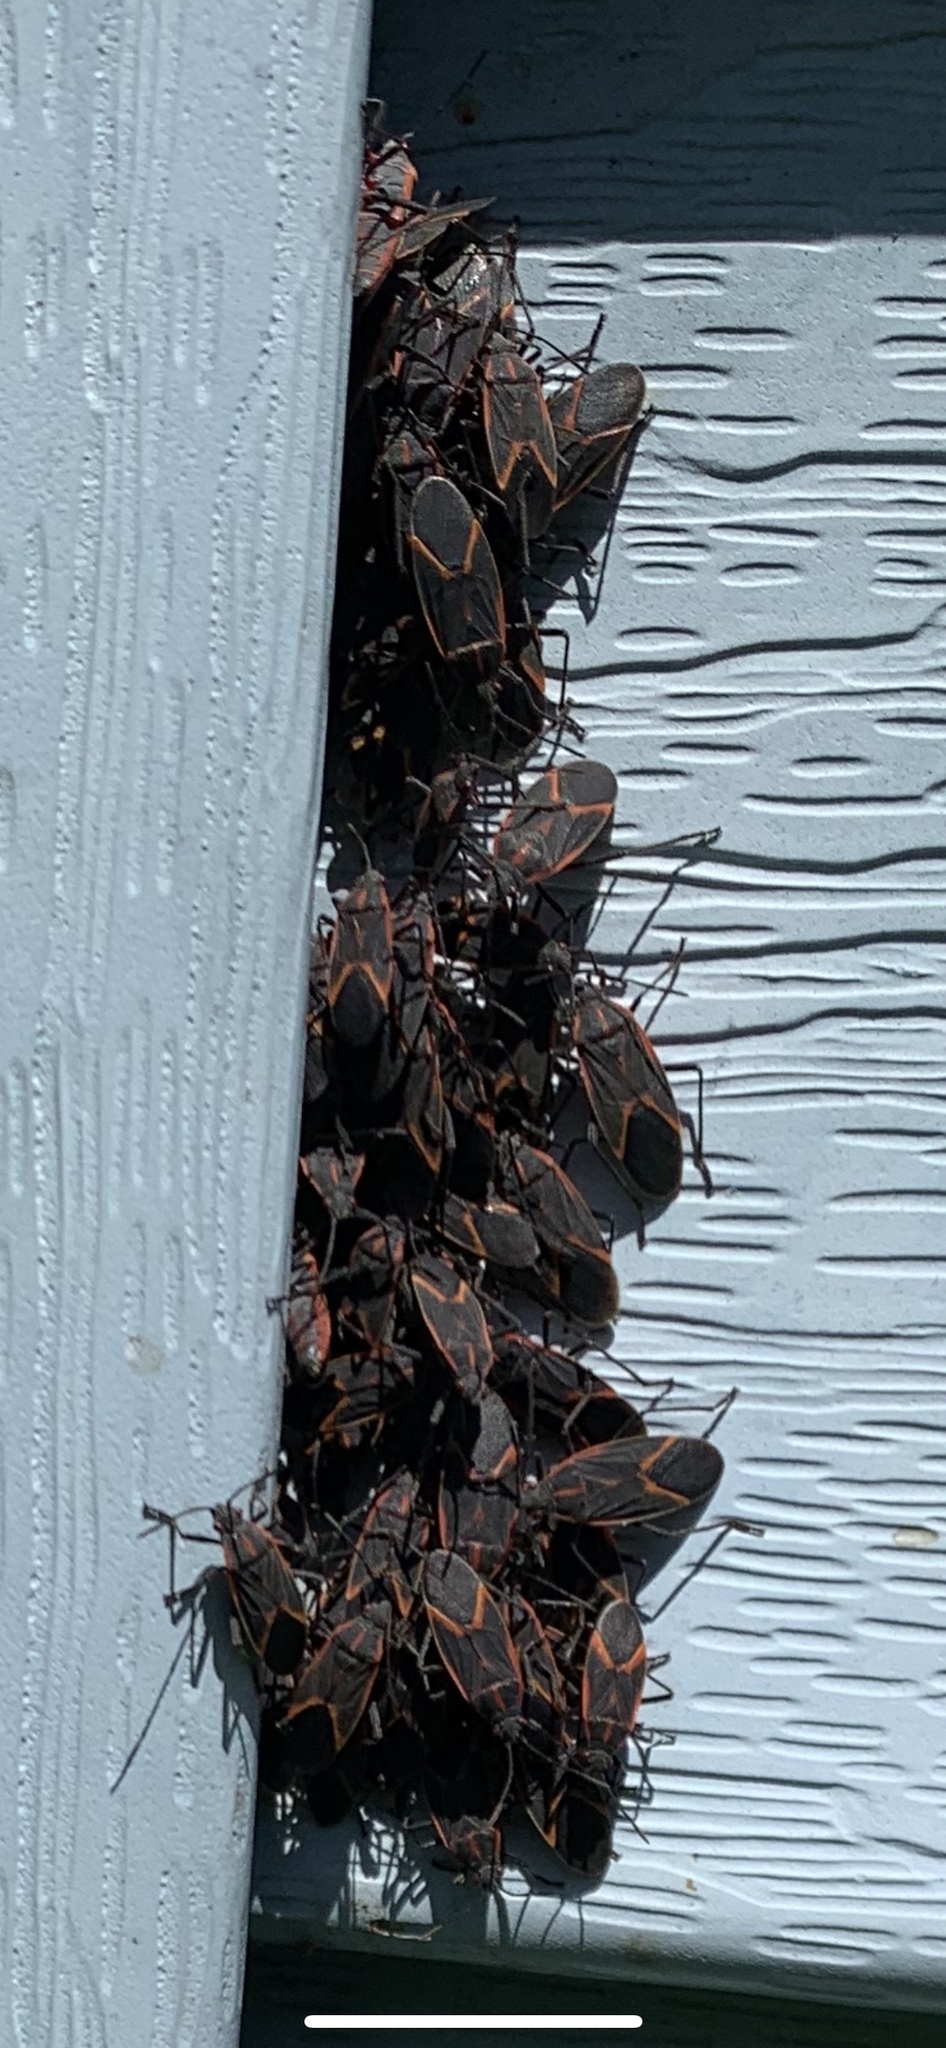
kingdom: Animalia
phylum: Arthropoda
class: Insecta
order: Hemiptera
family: Rhopalidae
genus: Boisea
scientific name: Boisea trivittata
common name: Boxelder bug
